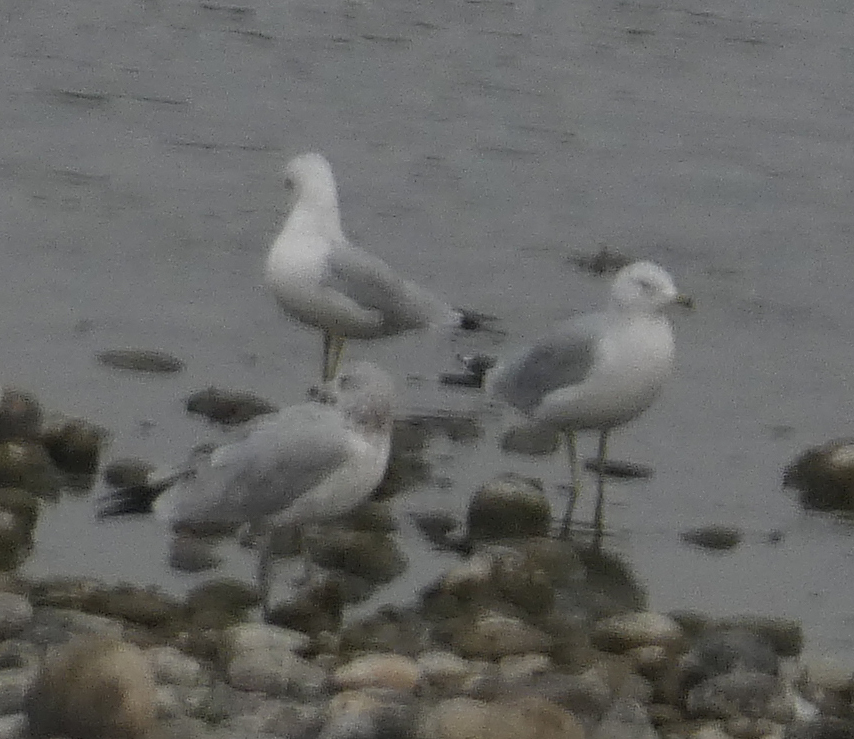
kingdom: Animalia
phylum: Chordata
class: Aves
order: Charadriiformes
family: Laridae
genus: Larus
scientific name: Larus delawarensis
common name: Ring-billed gull
